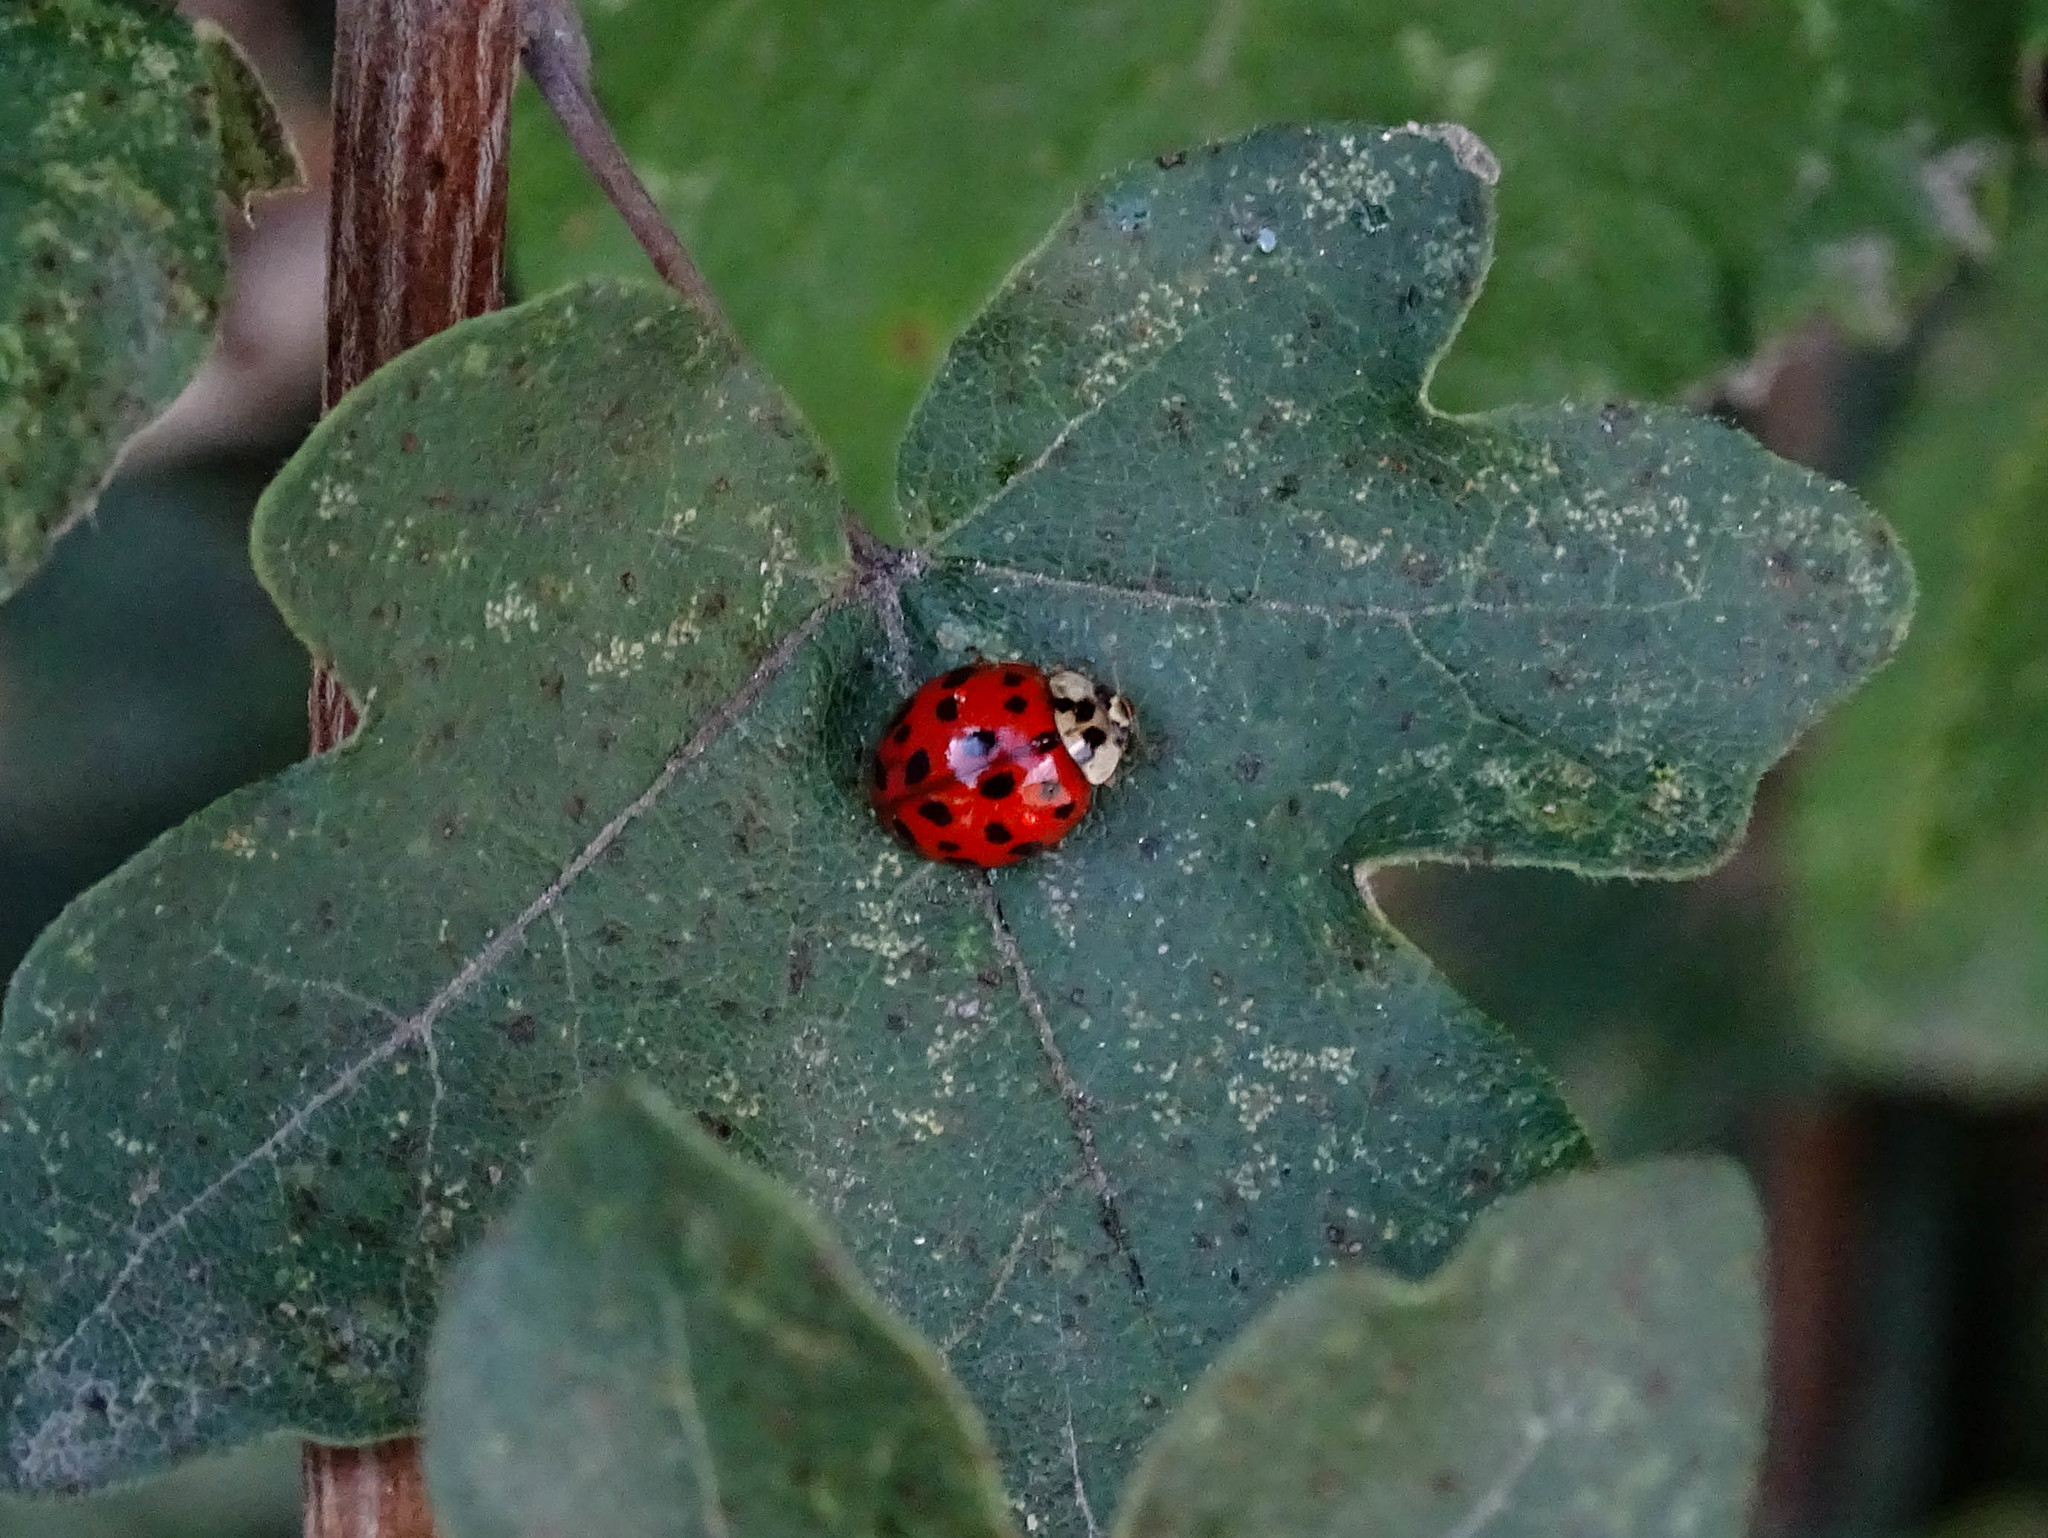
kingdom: Animalia
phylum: Arthropoda
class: Insecta
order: Coleoptera
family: Coccinellidae
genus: Harmonia
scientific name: Harmonia axyridis
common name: Harlequin ladybird
